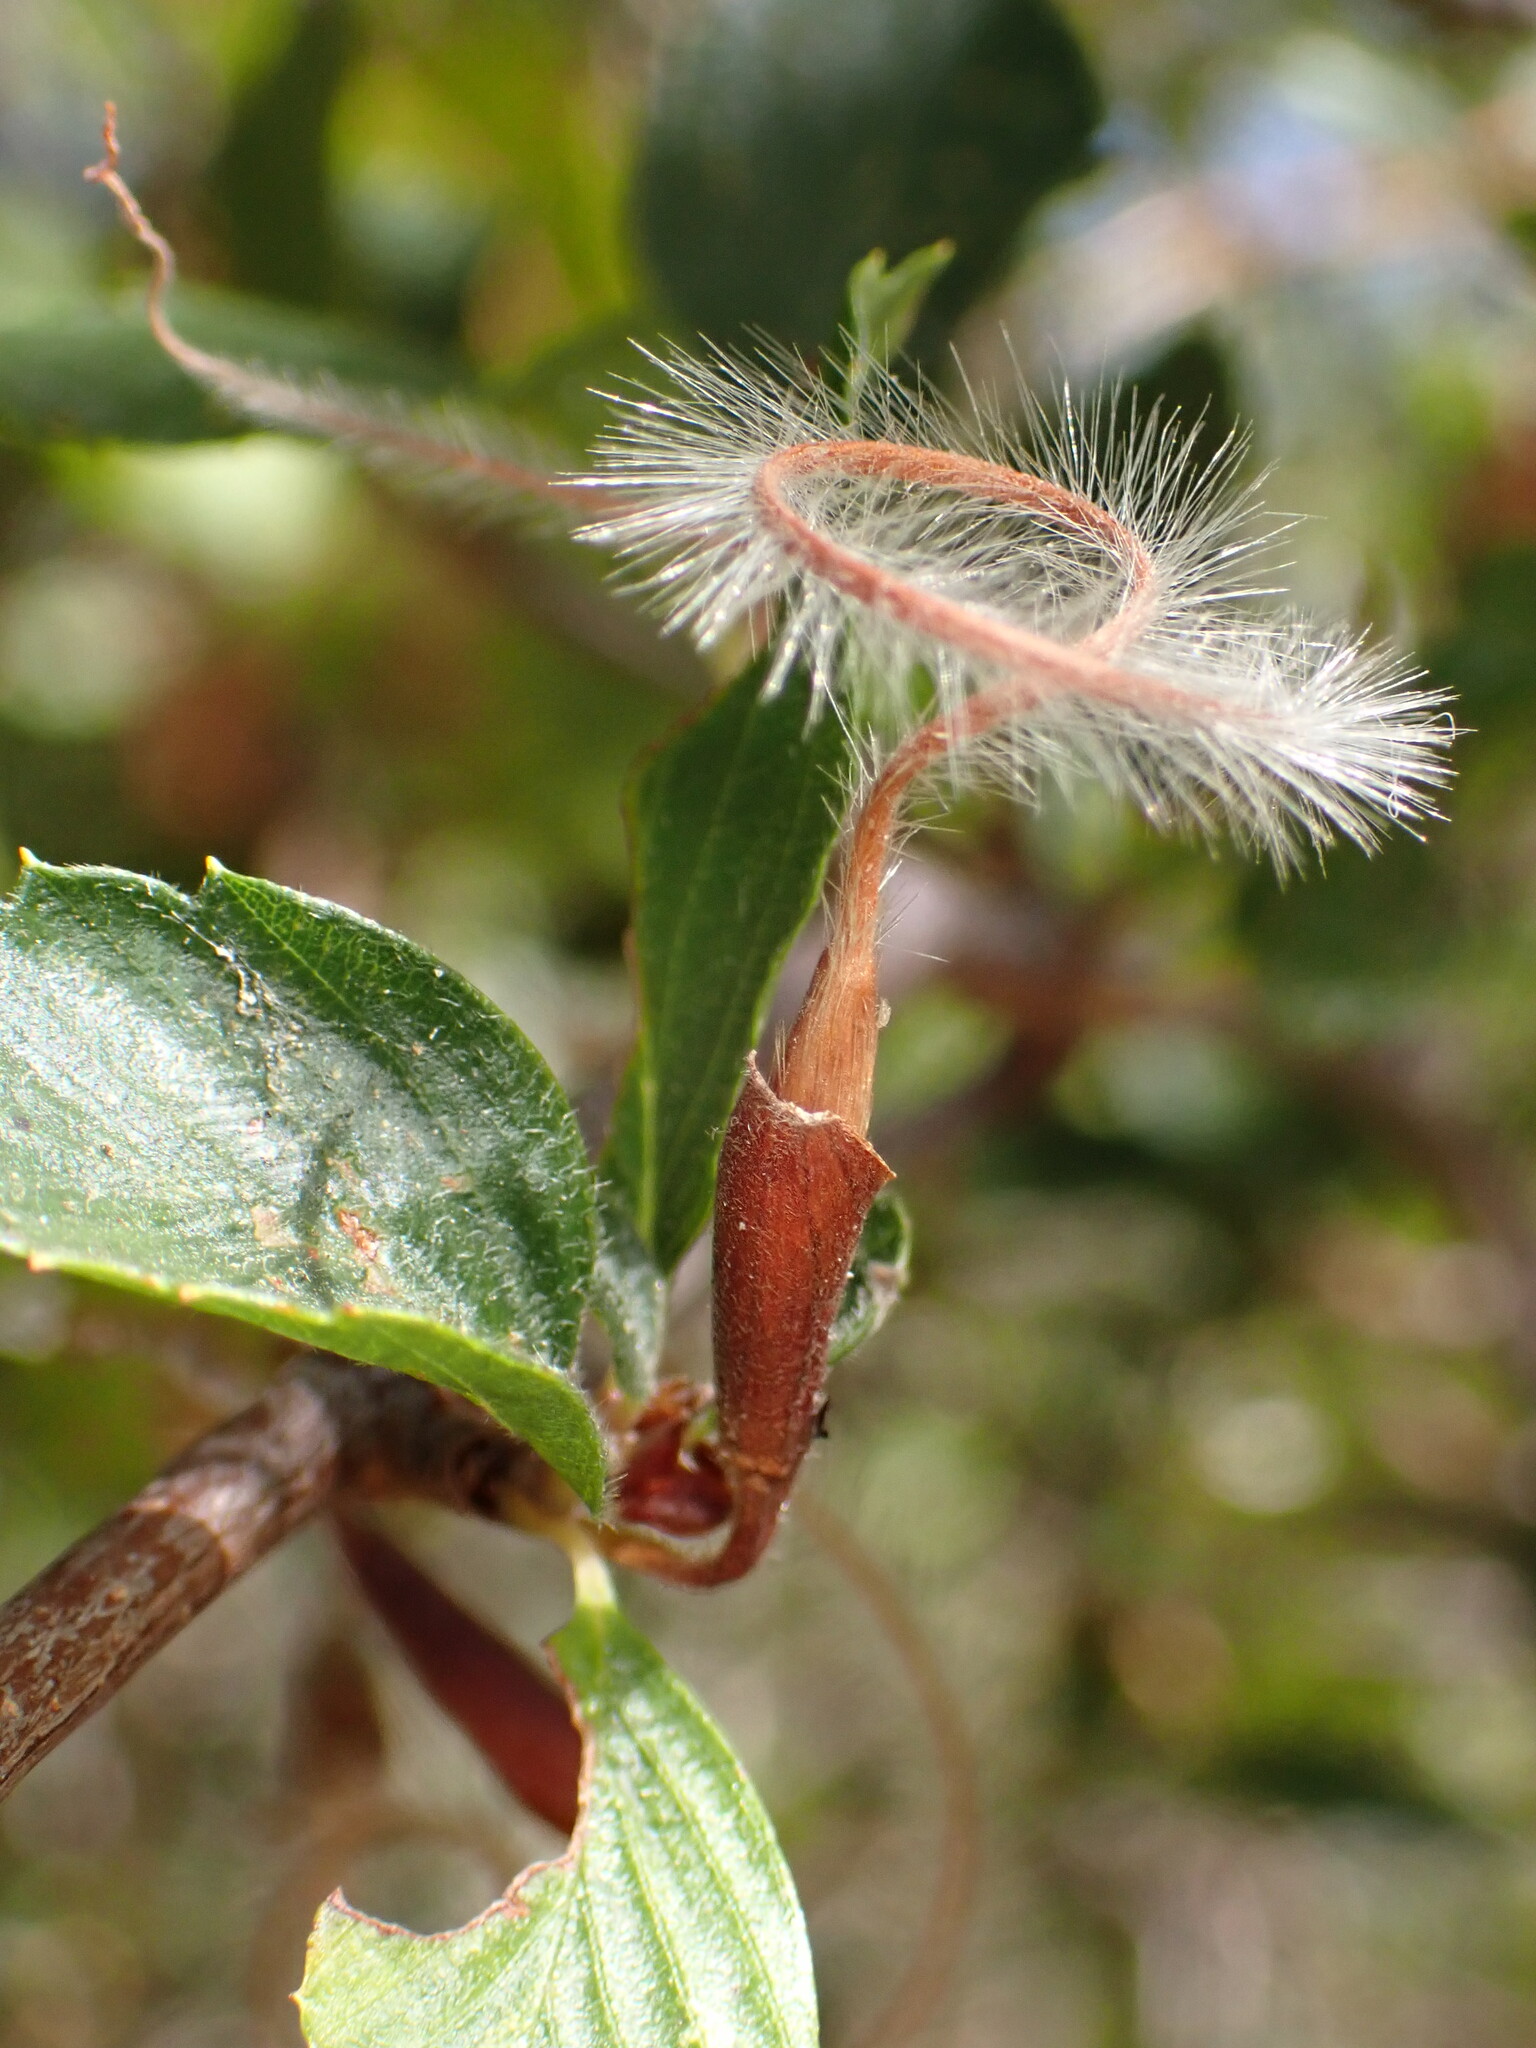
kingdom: Plantae
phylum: Tracheophyta
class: Magnoliopsida
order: Rosales
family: Rosaceae
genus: Cercocarpus
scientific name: Cercocarpus betuloides
